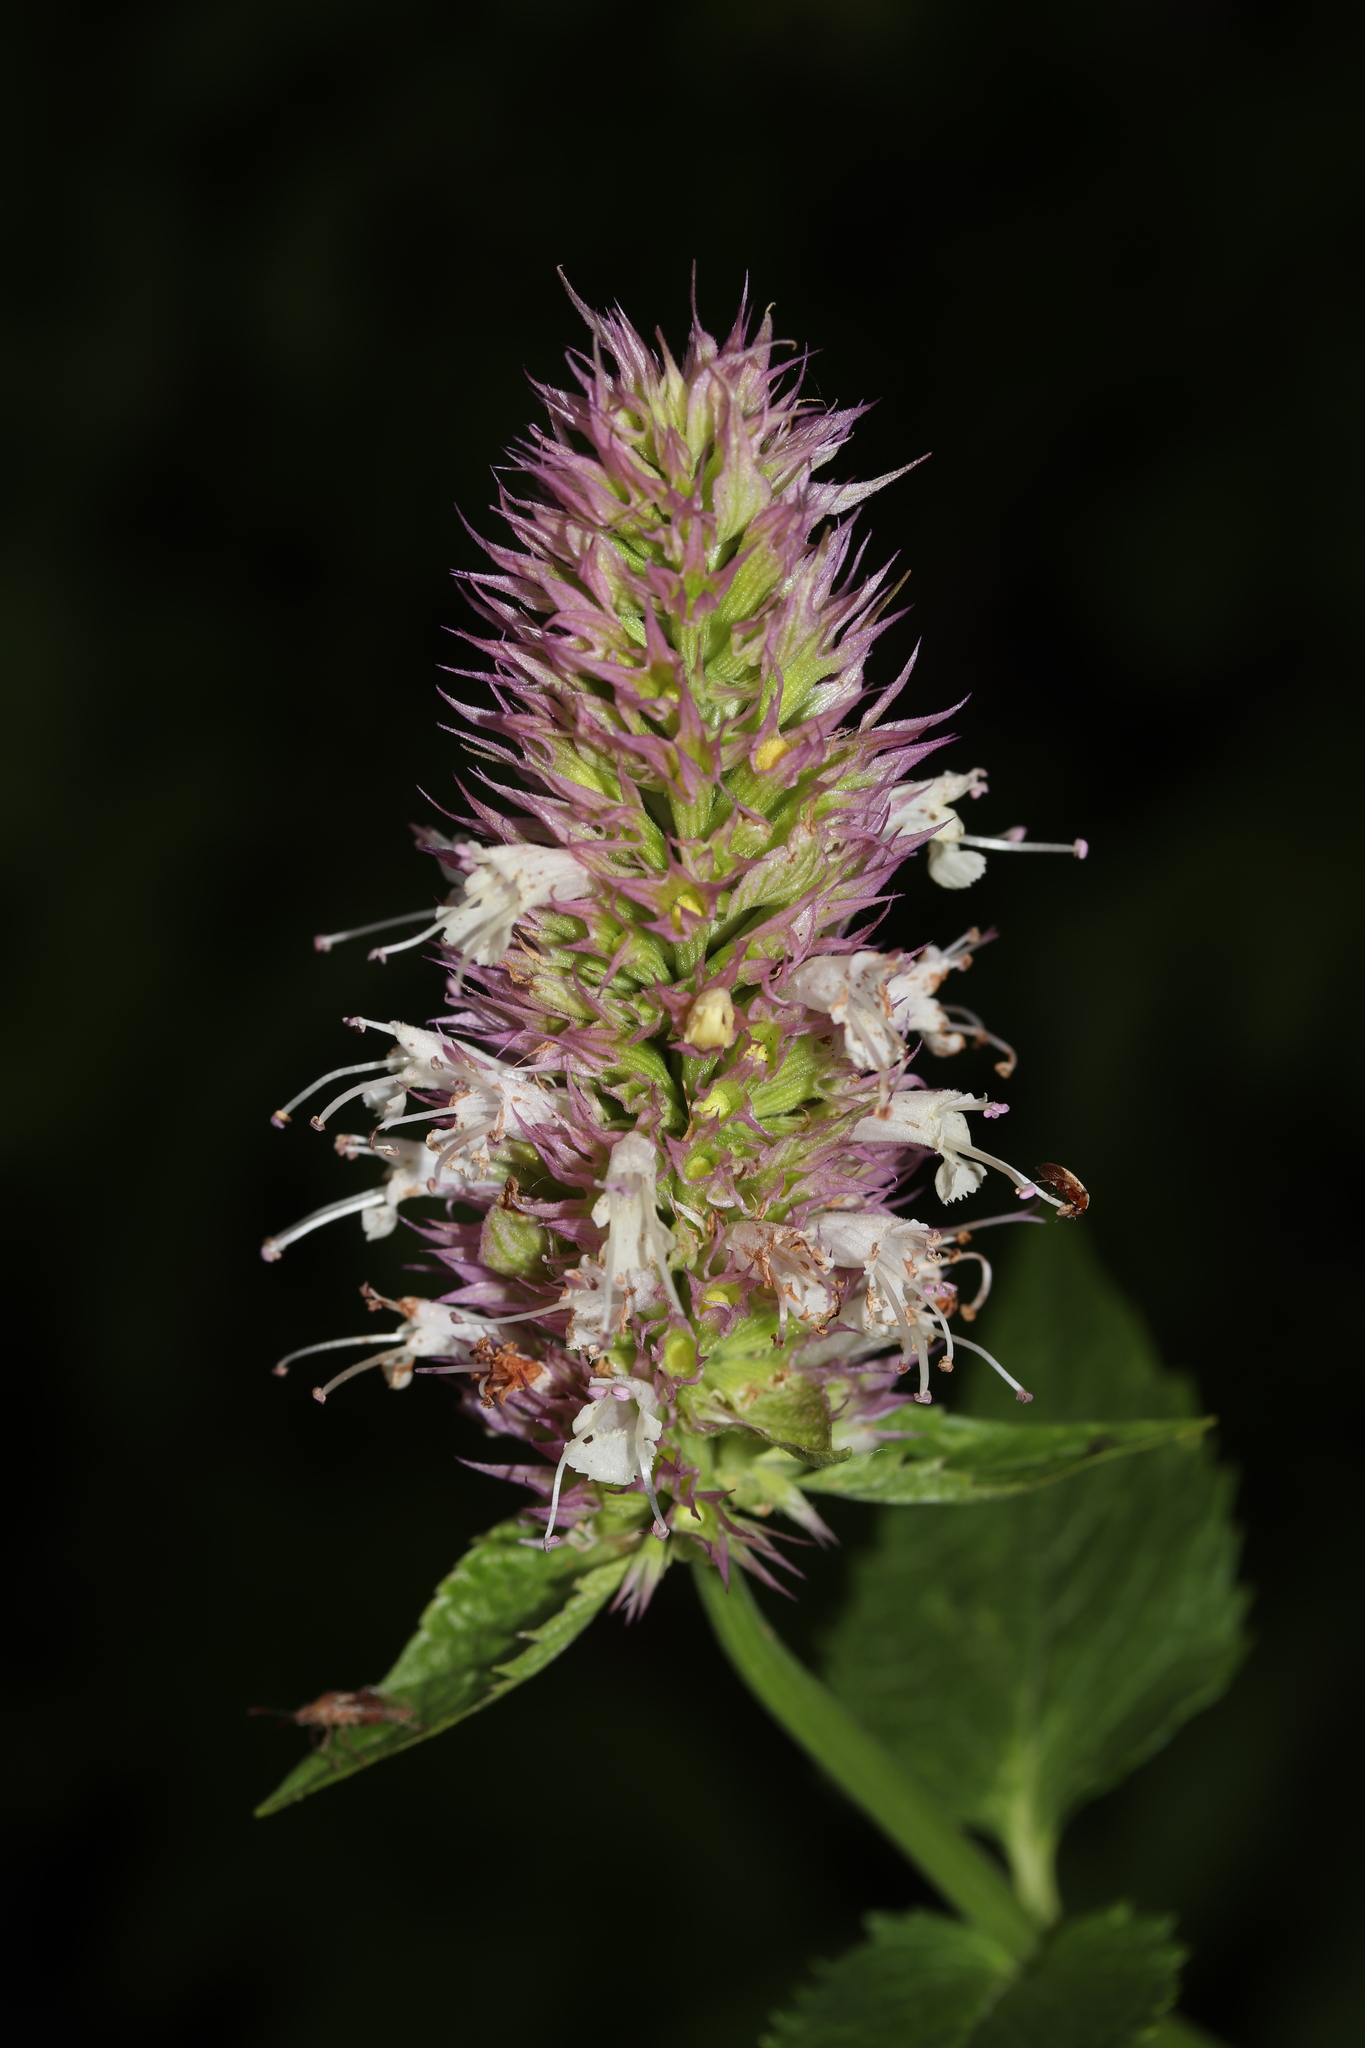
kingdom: Plantae
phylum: Tracheophyta
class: Magnoliopsida
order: Lamiales
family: Lamiaceae
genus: Agastache
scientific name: Agastache urticifolia
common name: Horsemint giant hyssop
